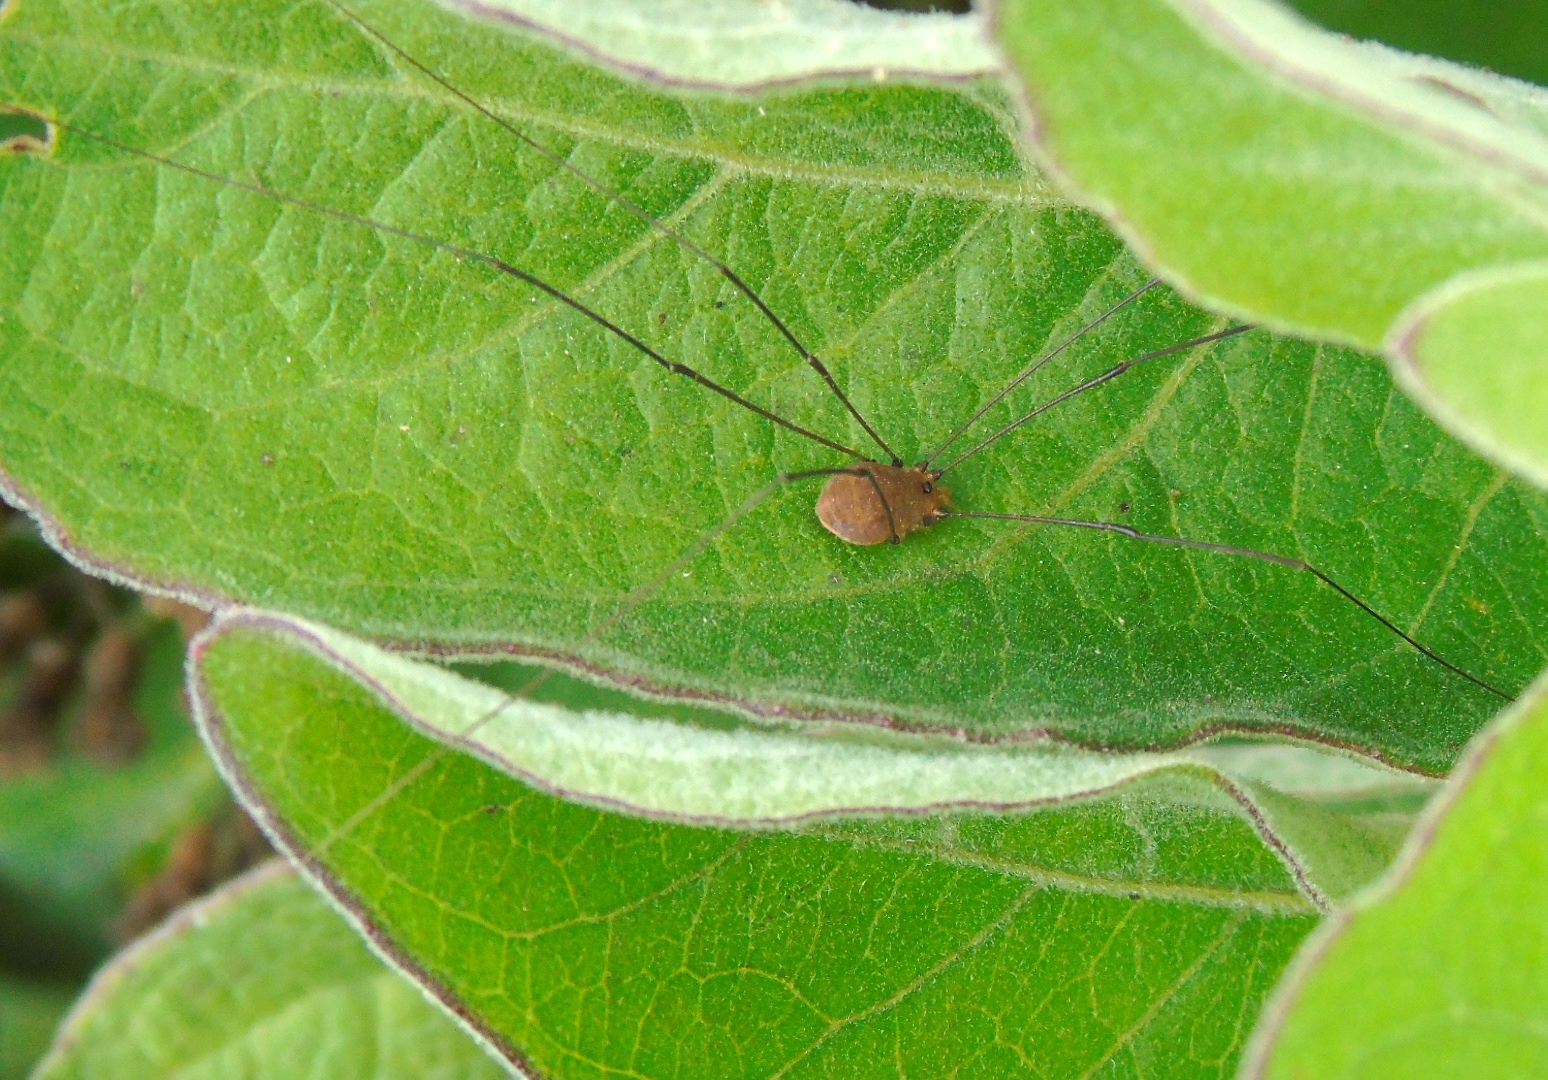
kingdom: Animalia
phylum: Arthropoda
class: Arachnida
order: Opiliones
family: Sclerosomatidae
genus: Leiobunum
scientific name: Leiobunum
